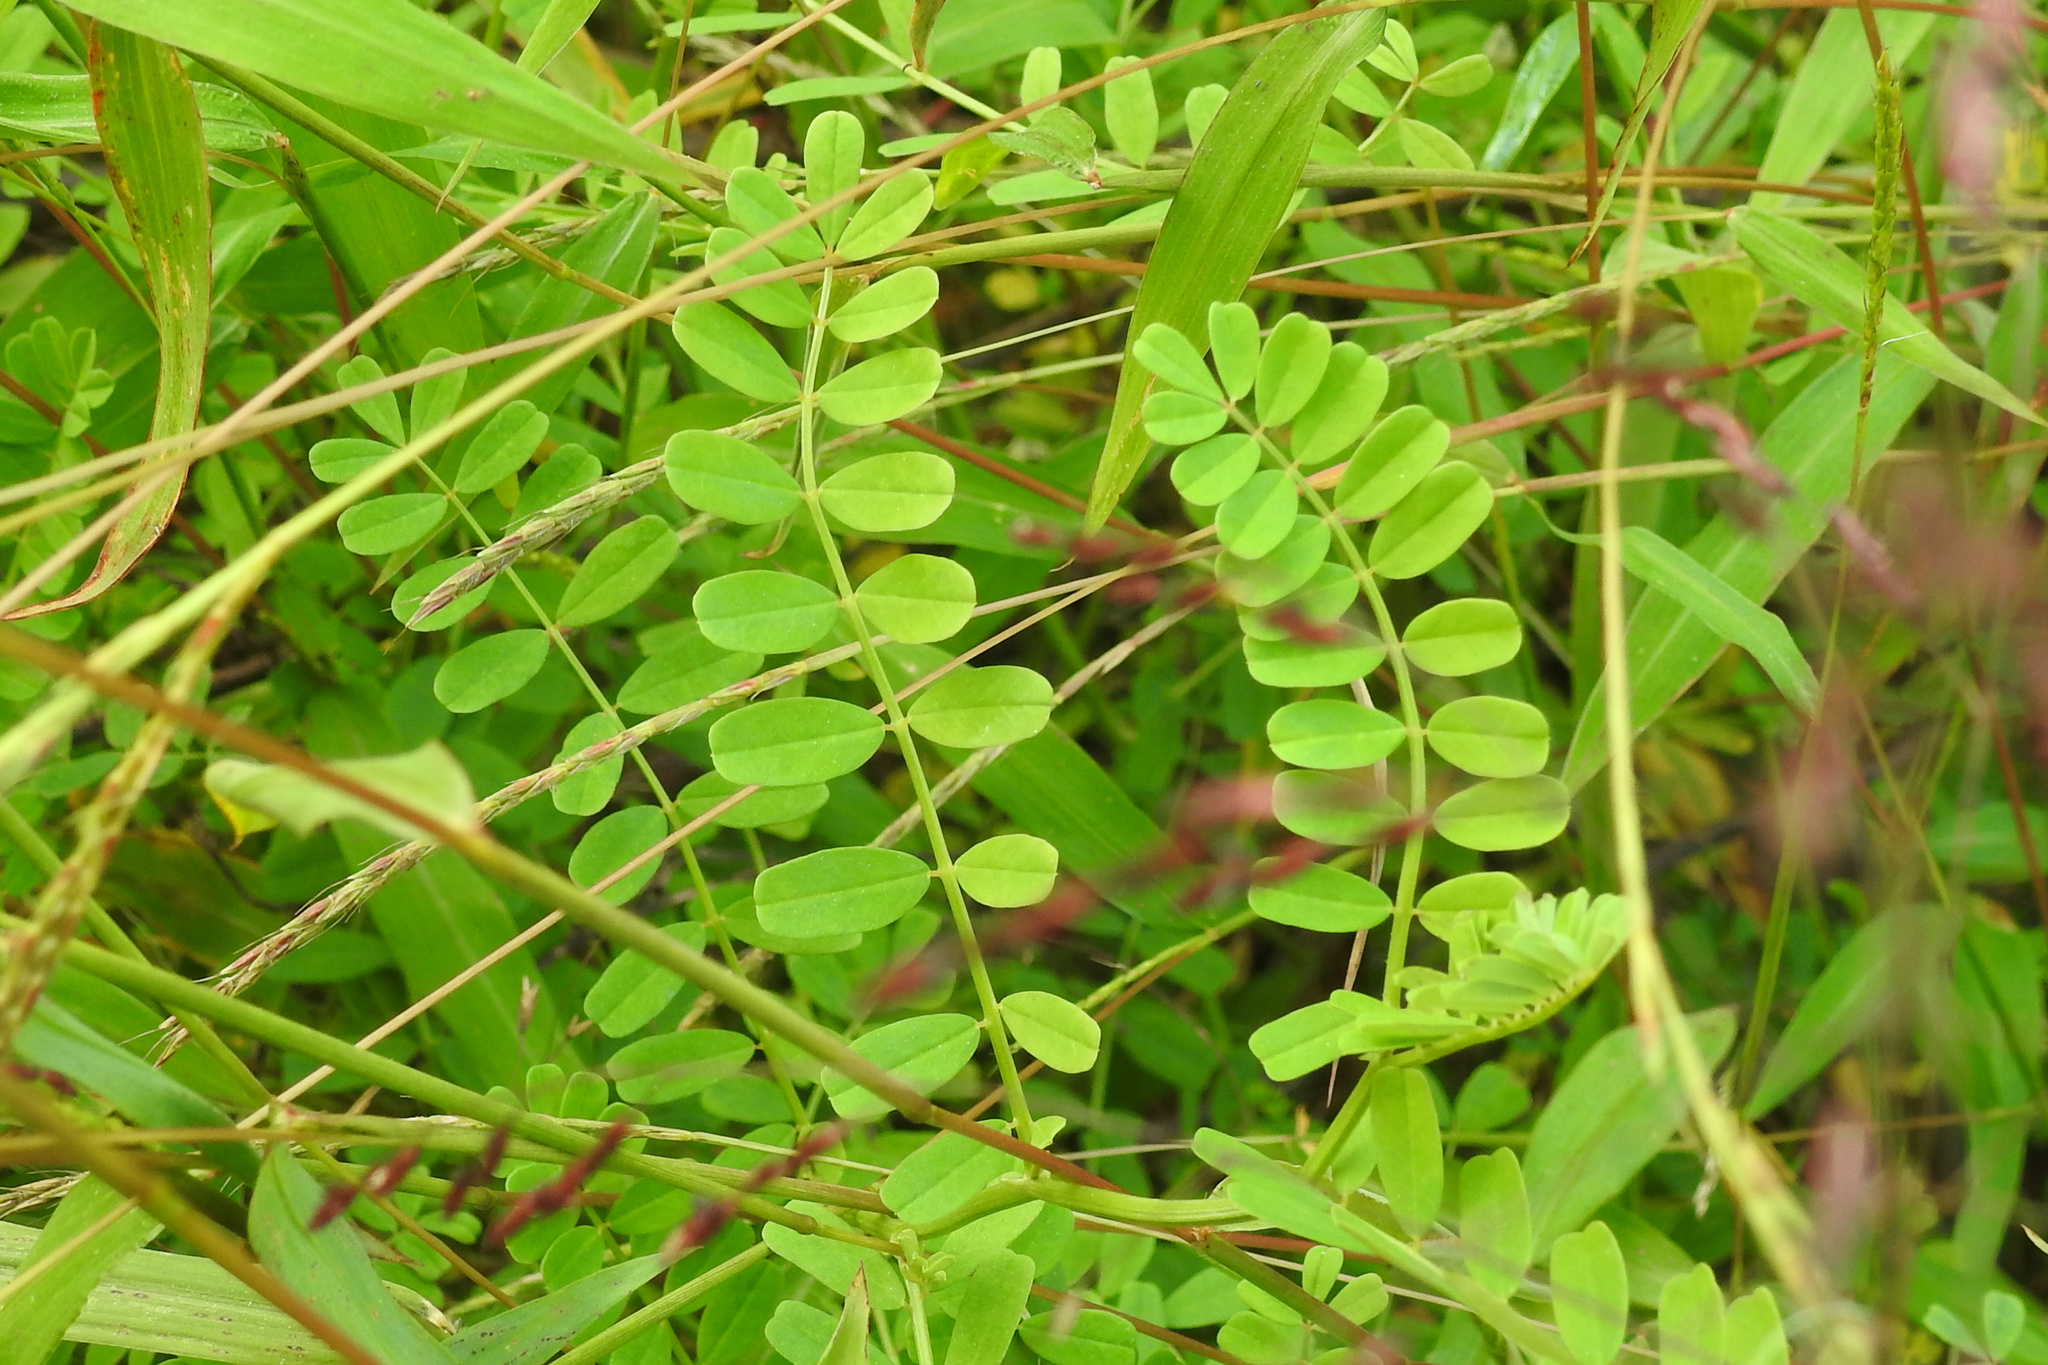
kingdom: Plantae
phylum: Tracheophyta
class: Magnoliopsida
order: Fabales
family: Fabaceae
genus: Coronilla
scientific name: Coronilla varia
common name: Crownvetch
